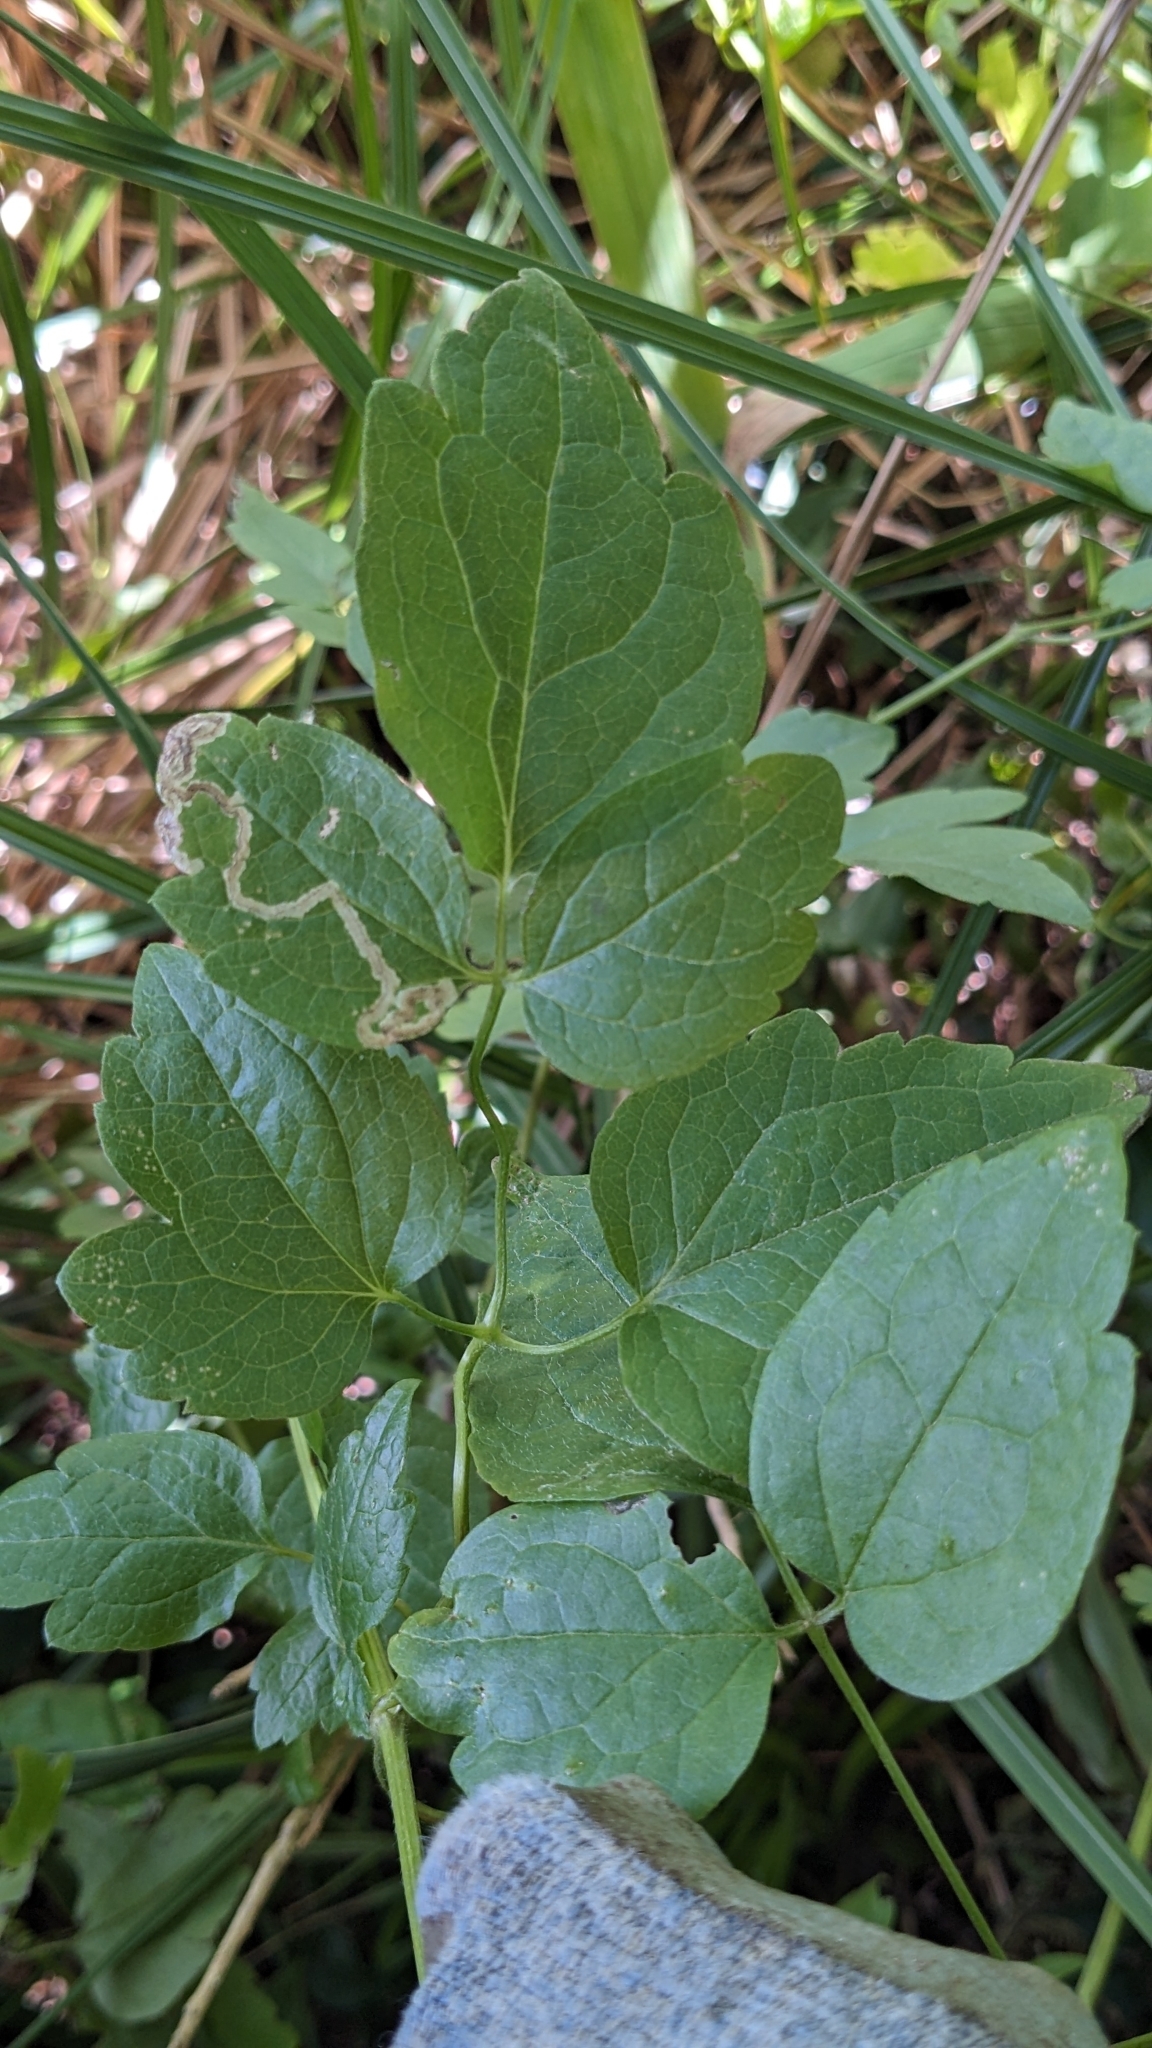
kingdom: Plantae
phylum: Tracheophyta
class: Magnoliopsida
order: Ranunculales
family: Ranunculaceae
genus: Clematis
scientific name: Clematis vitalba
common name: Evergreen clematis
